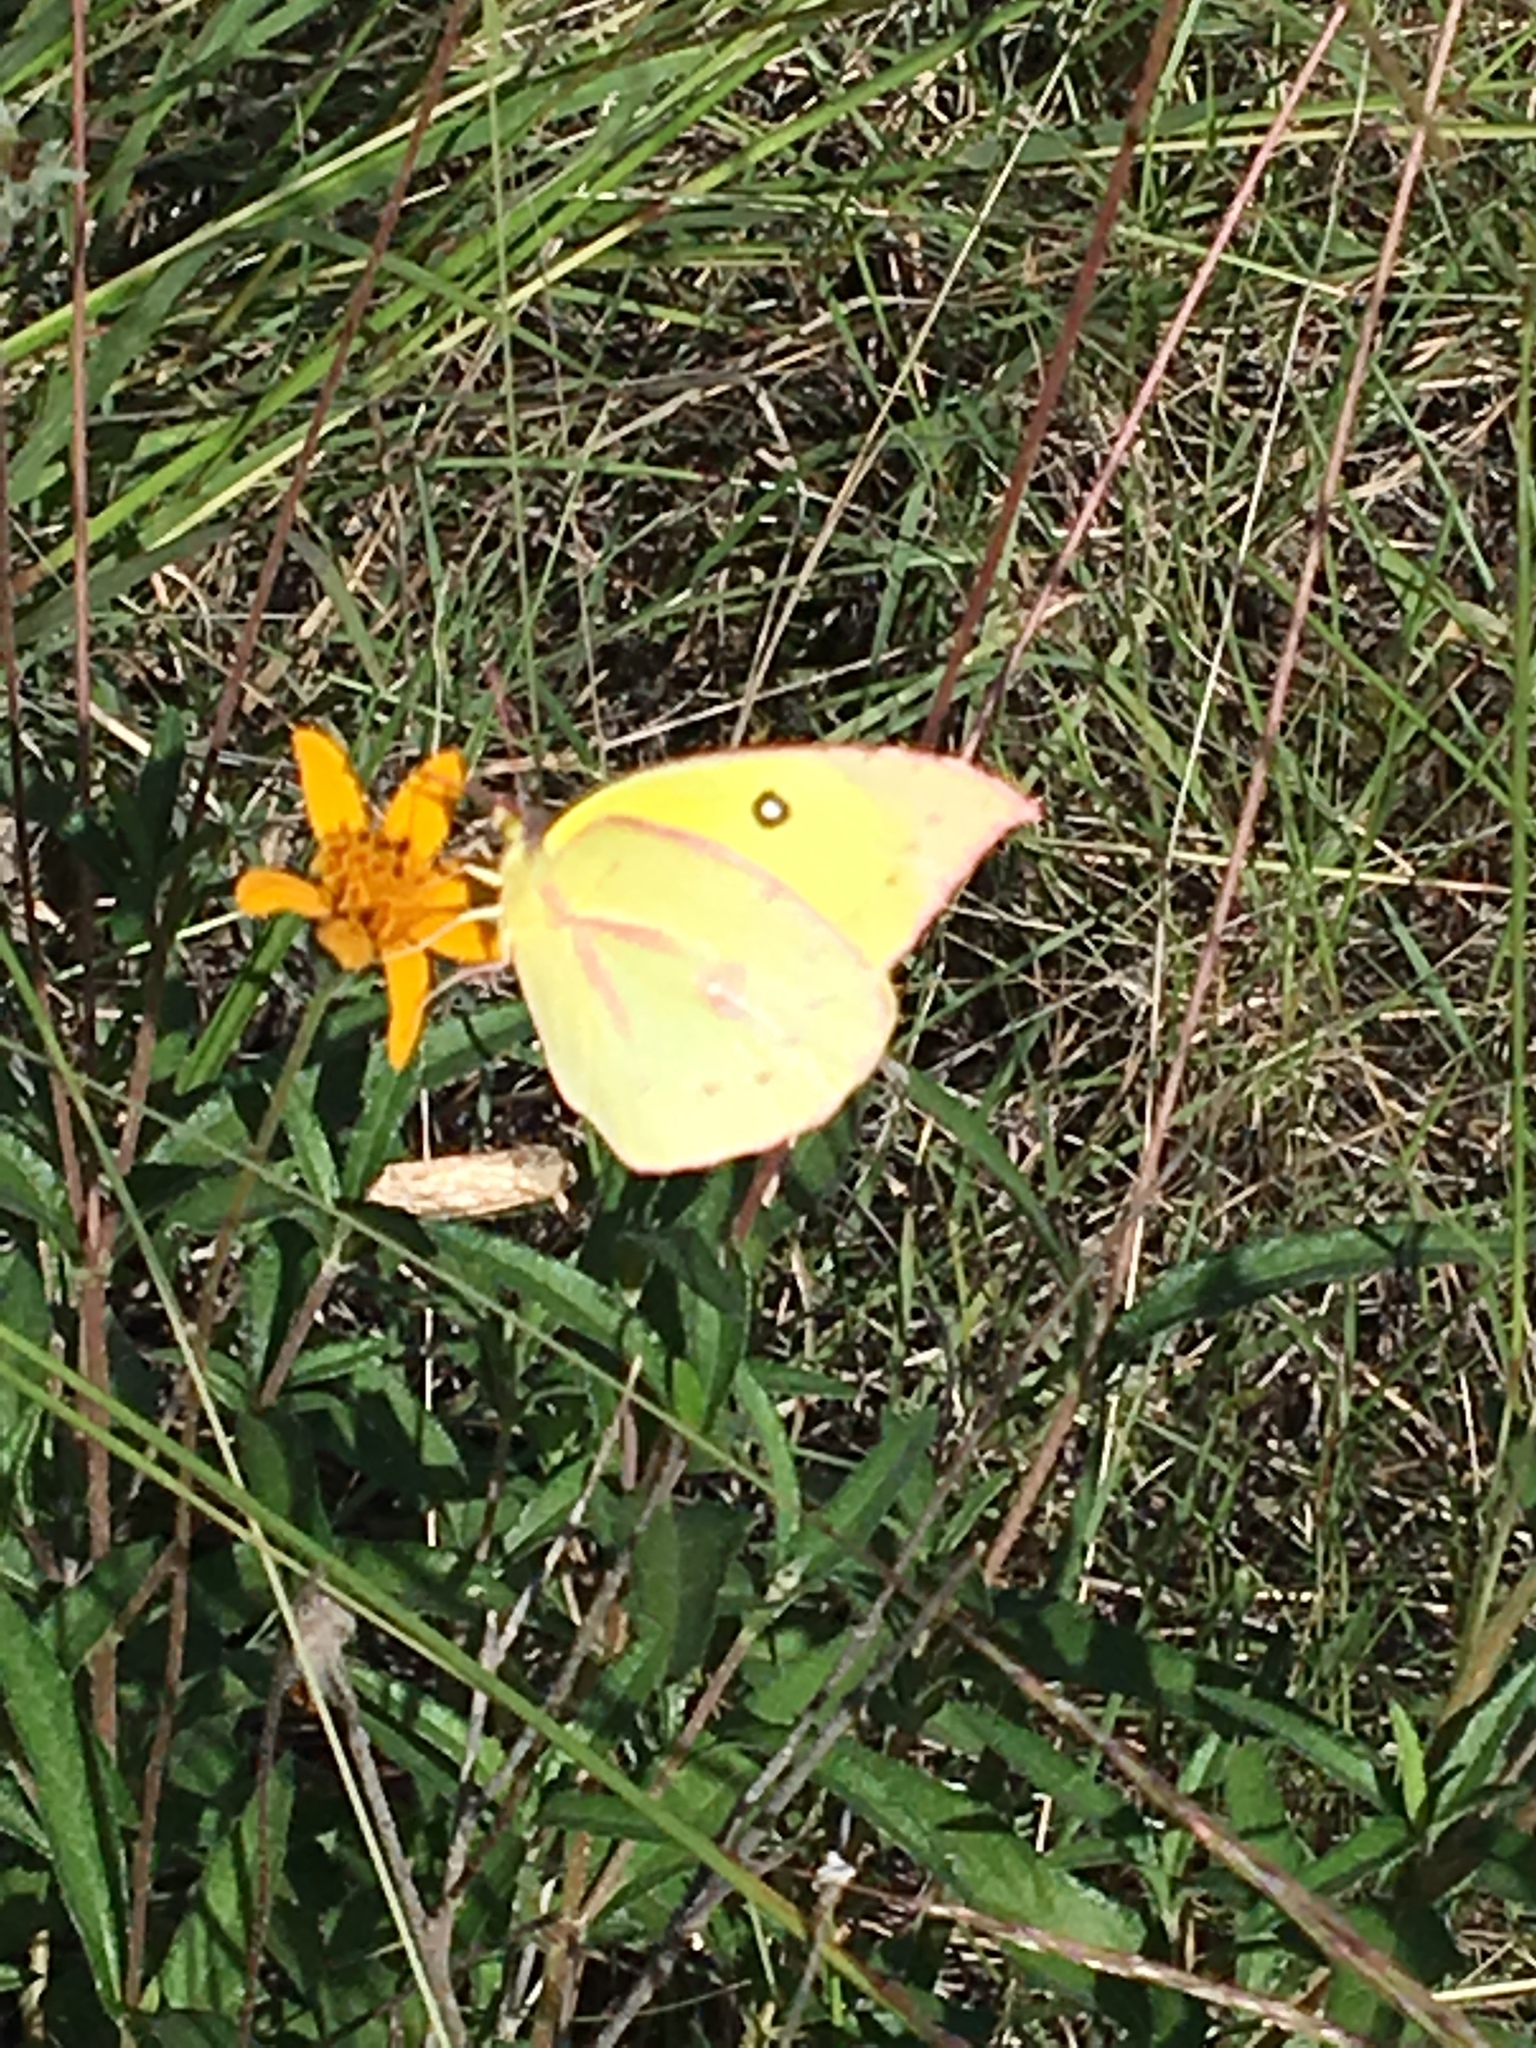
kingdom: Animalia
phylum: Arthropoda
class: Insecta
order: Lepidoptera
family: Pieridae
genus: Zerene
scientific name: Zerene cesonia
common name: Southern dogface
